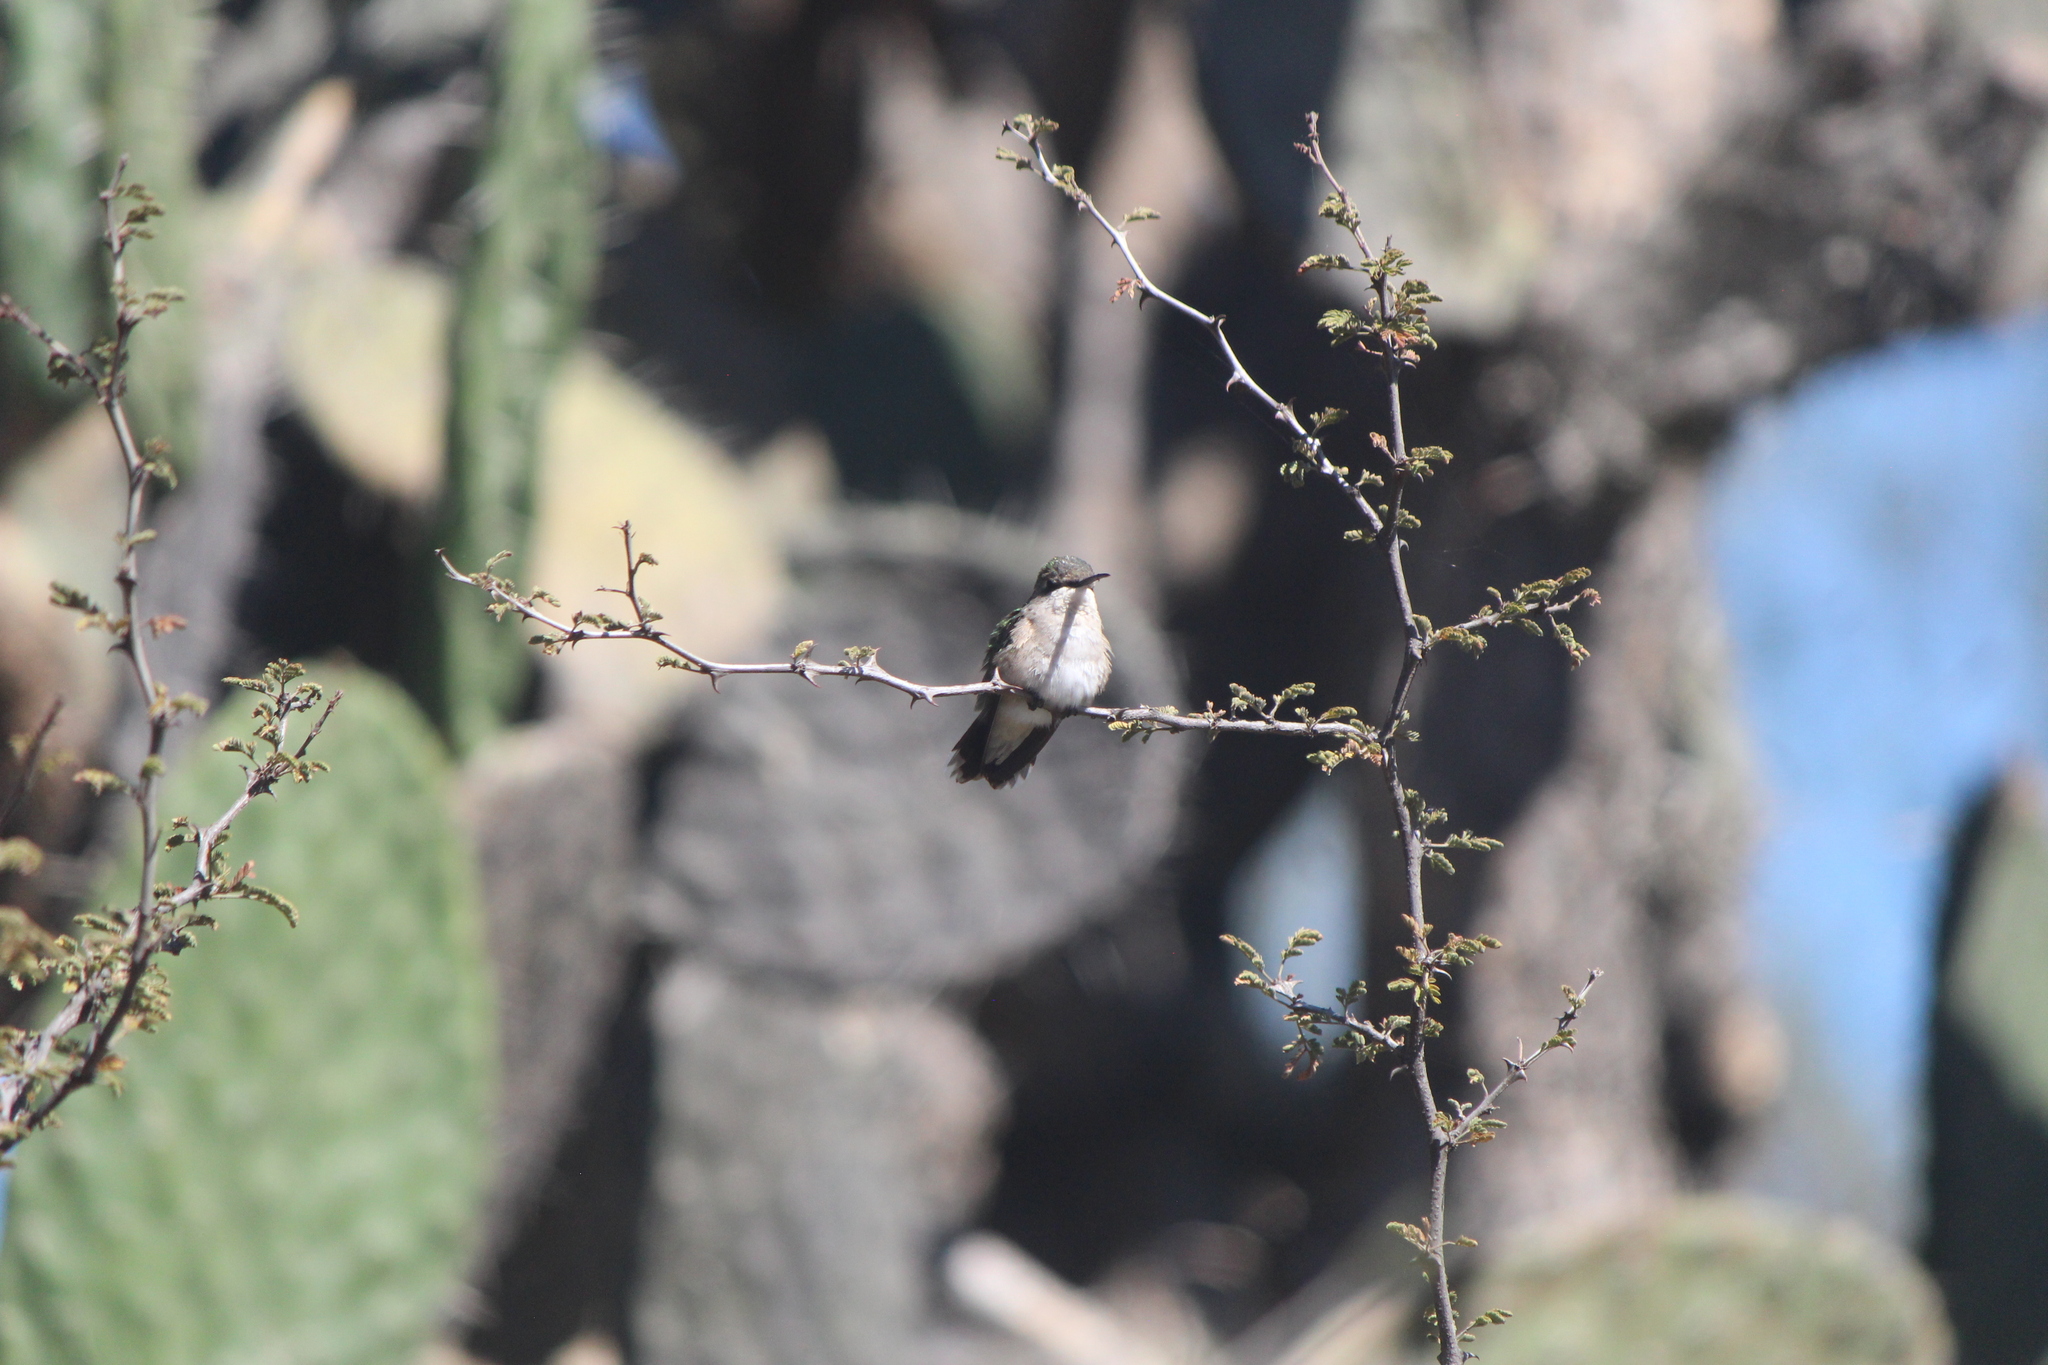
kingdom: Animalia
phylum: Chordata
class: Aves
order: Apodiformes
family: Trochilidae
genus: Archilochus
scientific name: Archilochus colubris
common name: Ruby-throated hummingbird
